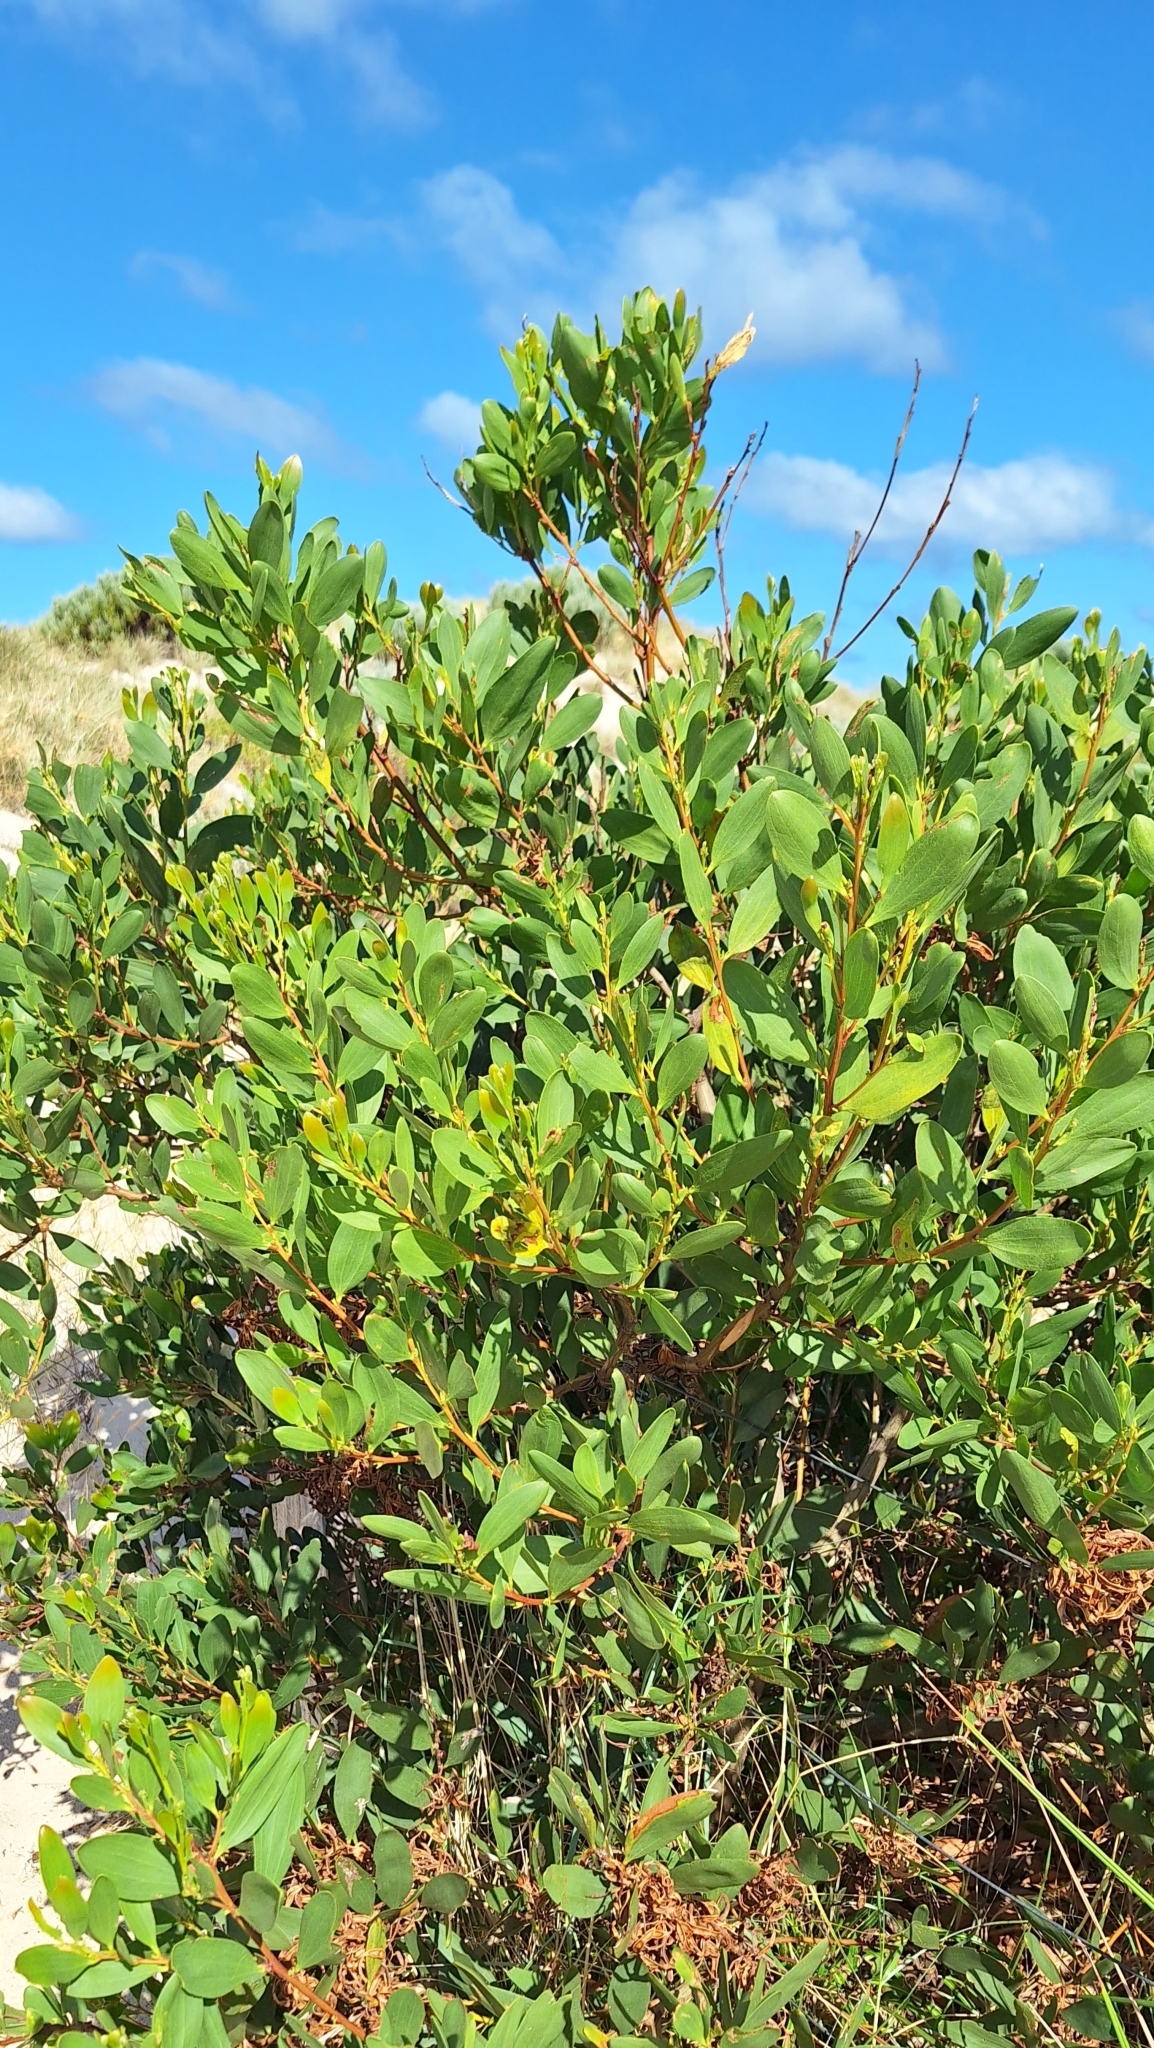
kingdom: Plantae
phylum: Tracheophyta
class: Magnoliopsida
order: Fabales
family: Fabaceae
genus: Acacia
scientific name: Acacia longifolia
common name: Sydney golden wattle
